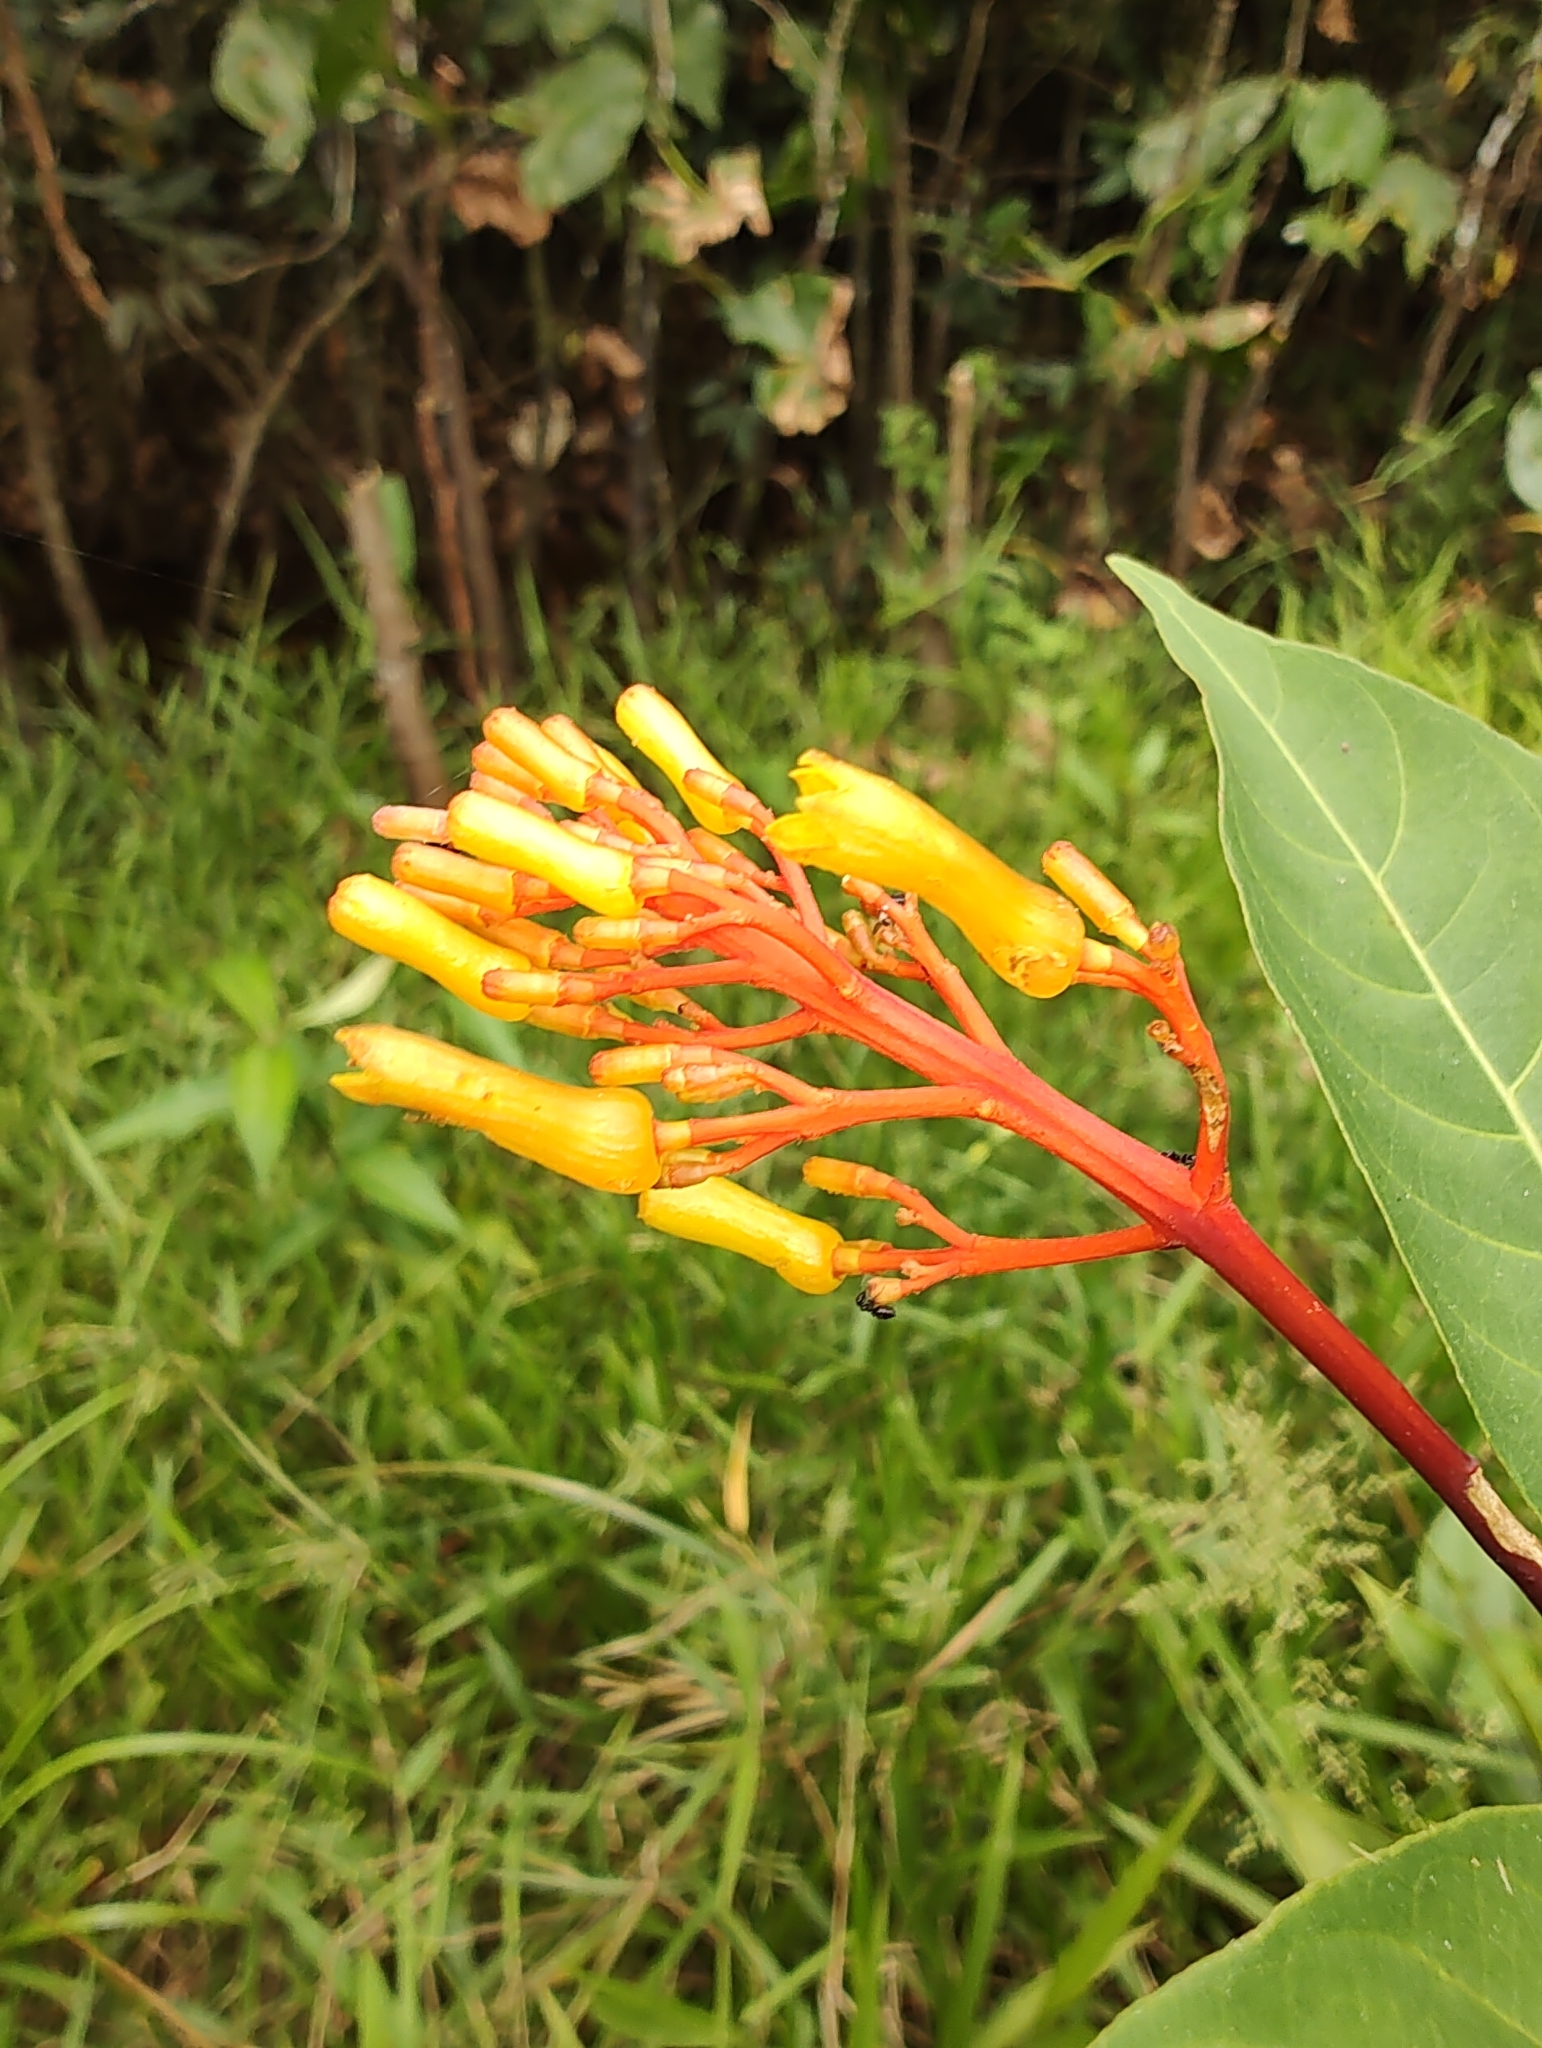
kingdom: Plantae
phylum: Tracheophyta
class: Magnoliopsida
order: Gentianales
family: Rubiaceae
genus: Palicourea
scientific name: Palicourea guianensis
